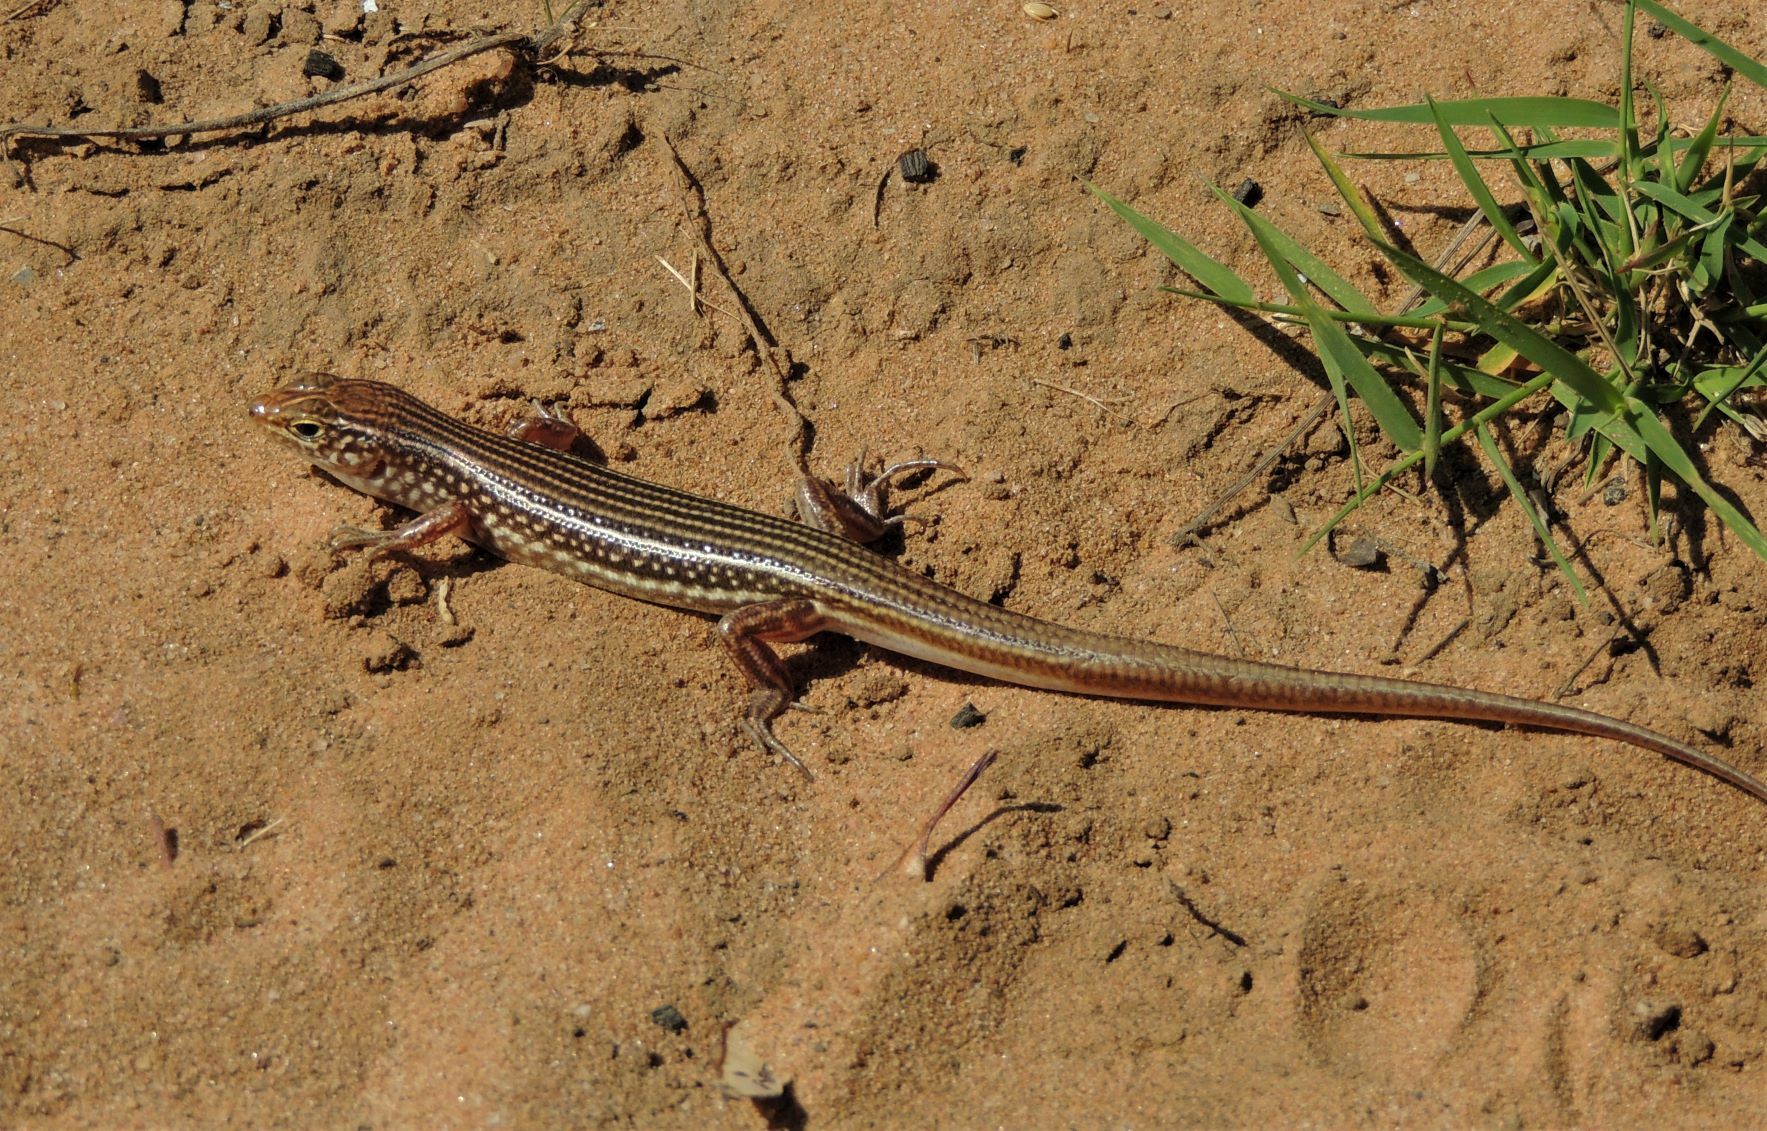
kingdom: Animalia
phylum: Chordata
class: Squamata
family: Scincidae
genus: Ctenotus
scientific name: Ctenotus hebetior
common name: Stout ctenotus
